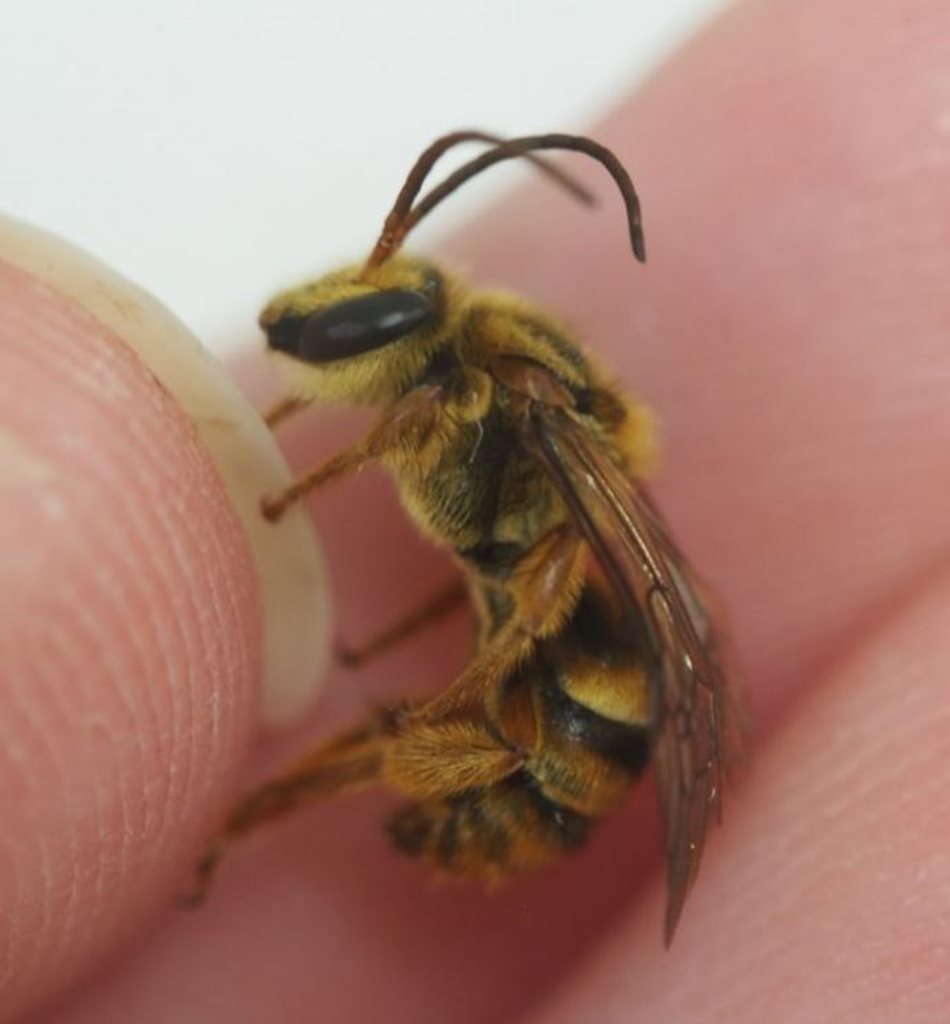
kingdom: Animalia
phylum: Arthropoda
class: Insecta
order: Hymenoptera
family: Halictidae
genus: Mellitidia
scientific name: Mellitidia tomentifera
